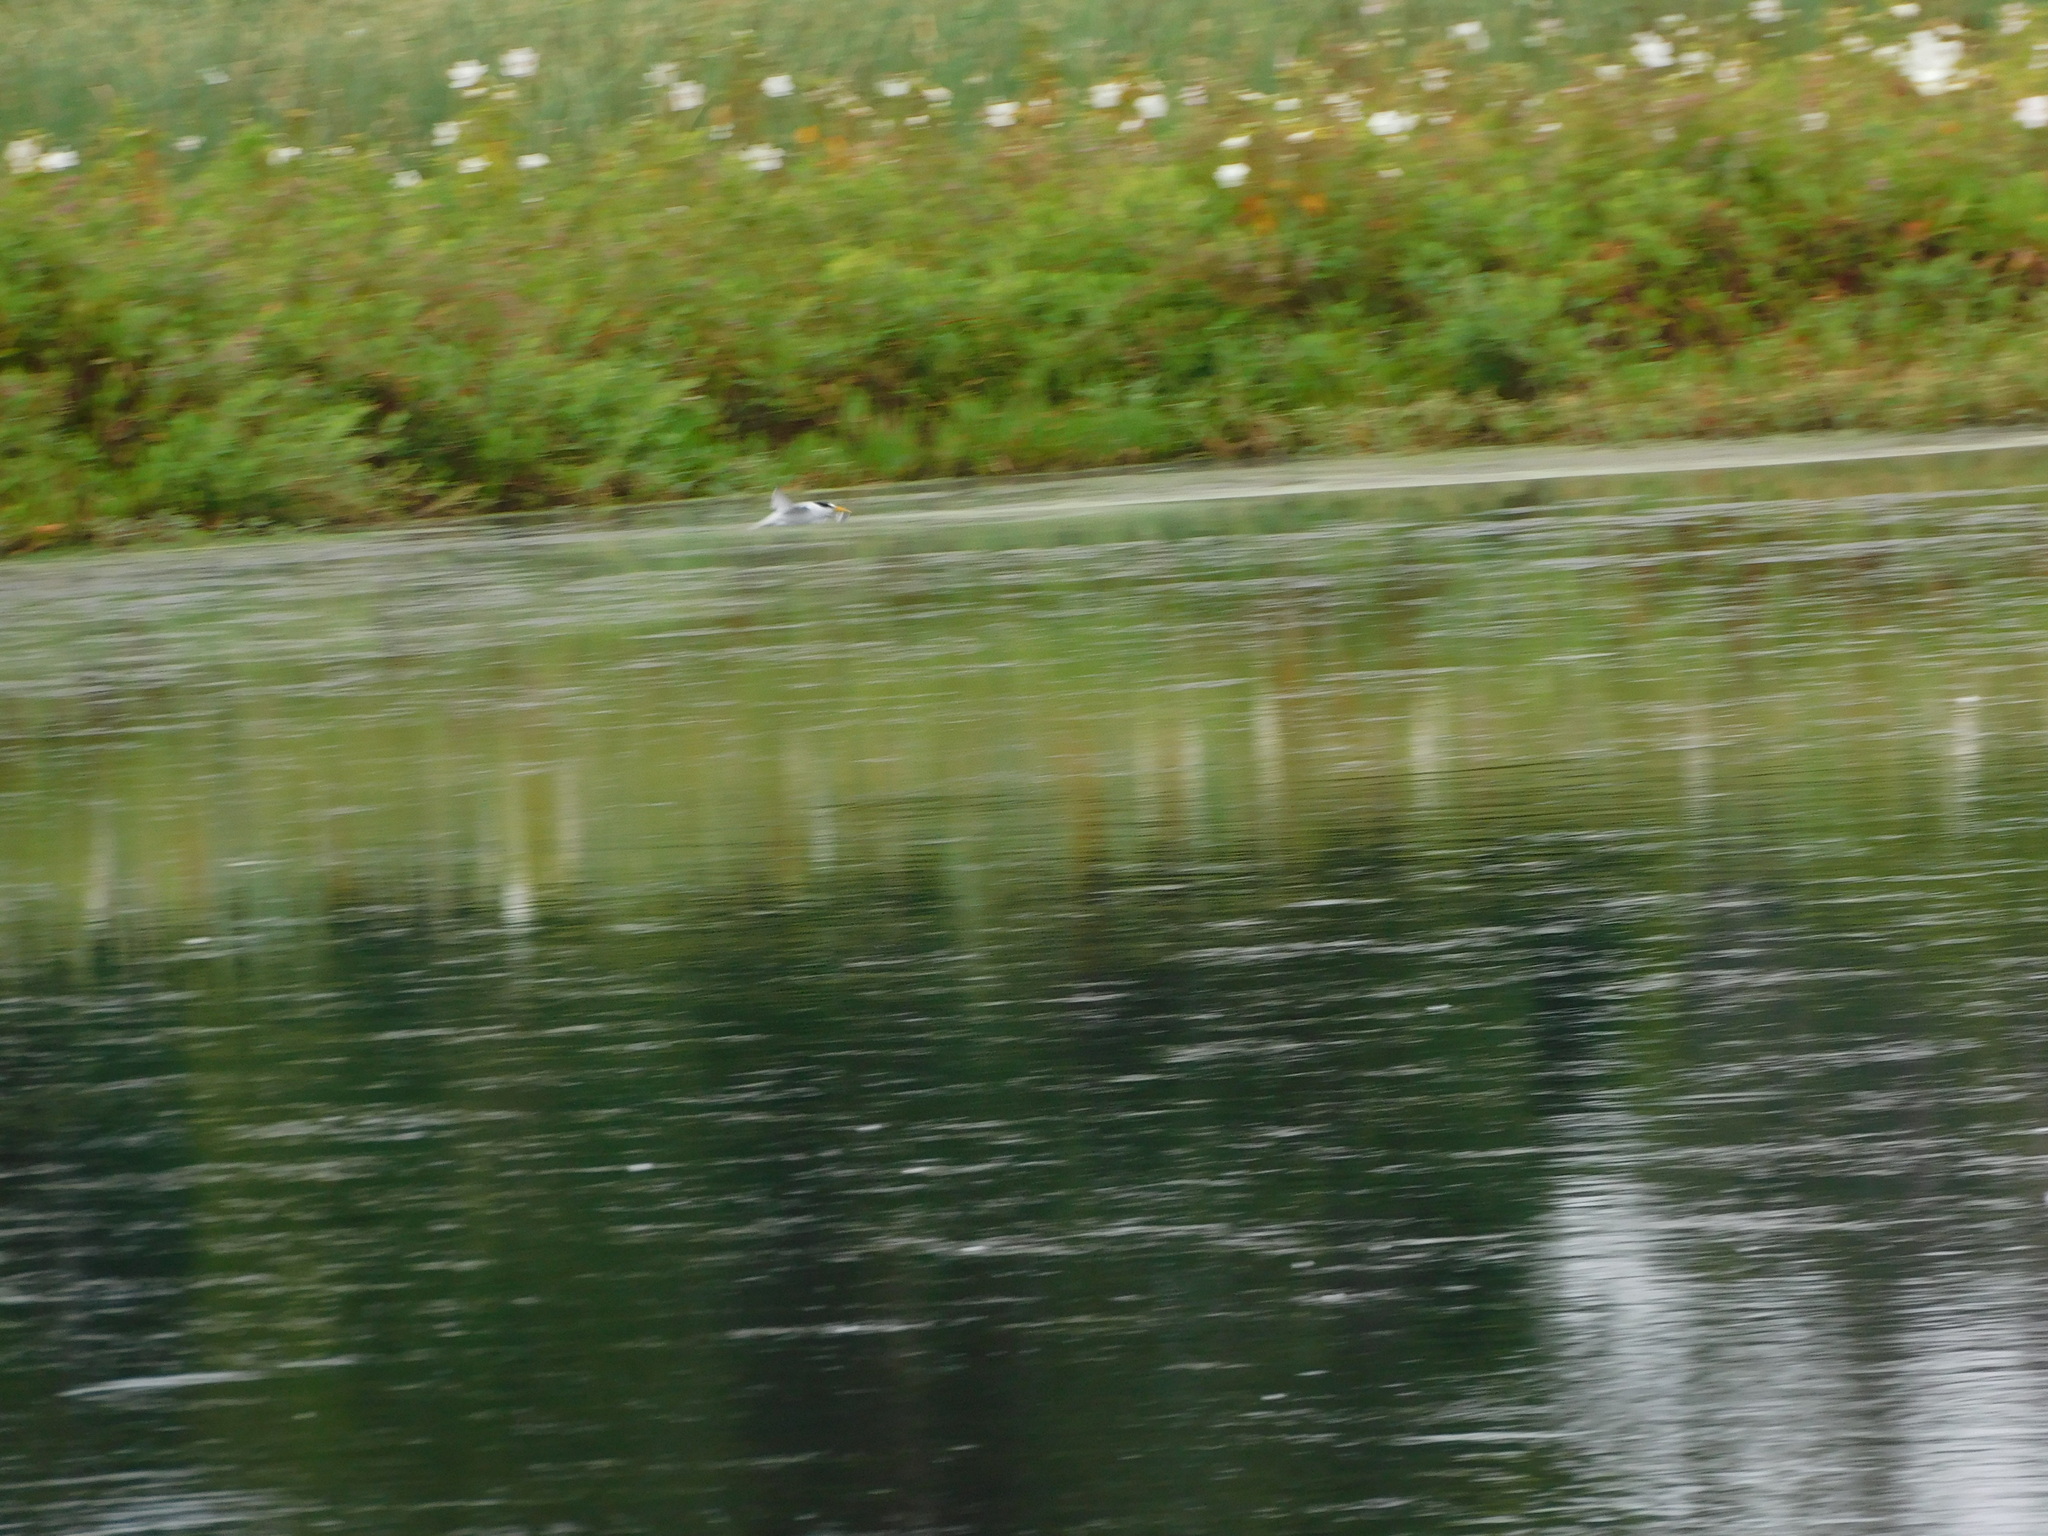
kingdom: Animalia
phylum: Chordata
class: Aves
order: Charadriiformes
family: Laridae
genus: Sternula
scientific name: Sternula antillarum
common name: Least tern
